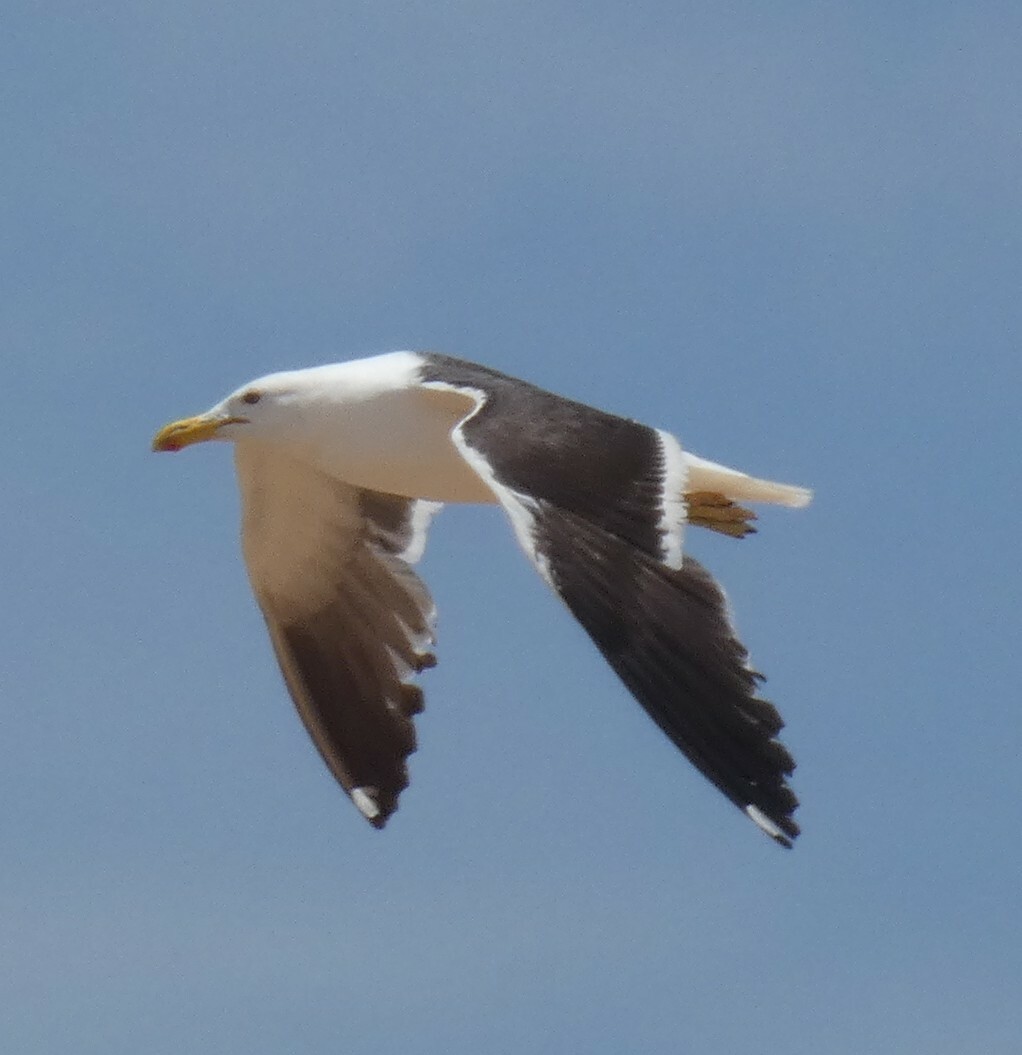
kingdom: Animalia
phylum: Chordata
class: Aves
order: Charadriiformes
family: Laridae
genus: Larus
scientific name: Larus dominicanus
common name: Kelp gull
